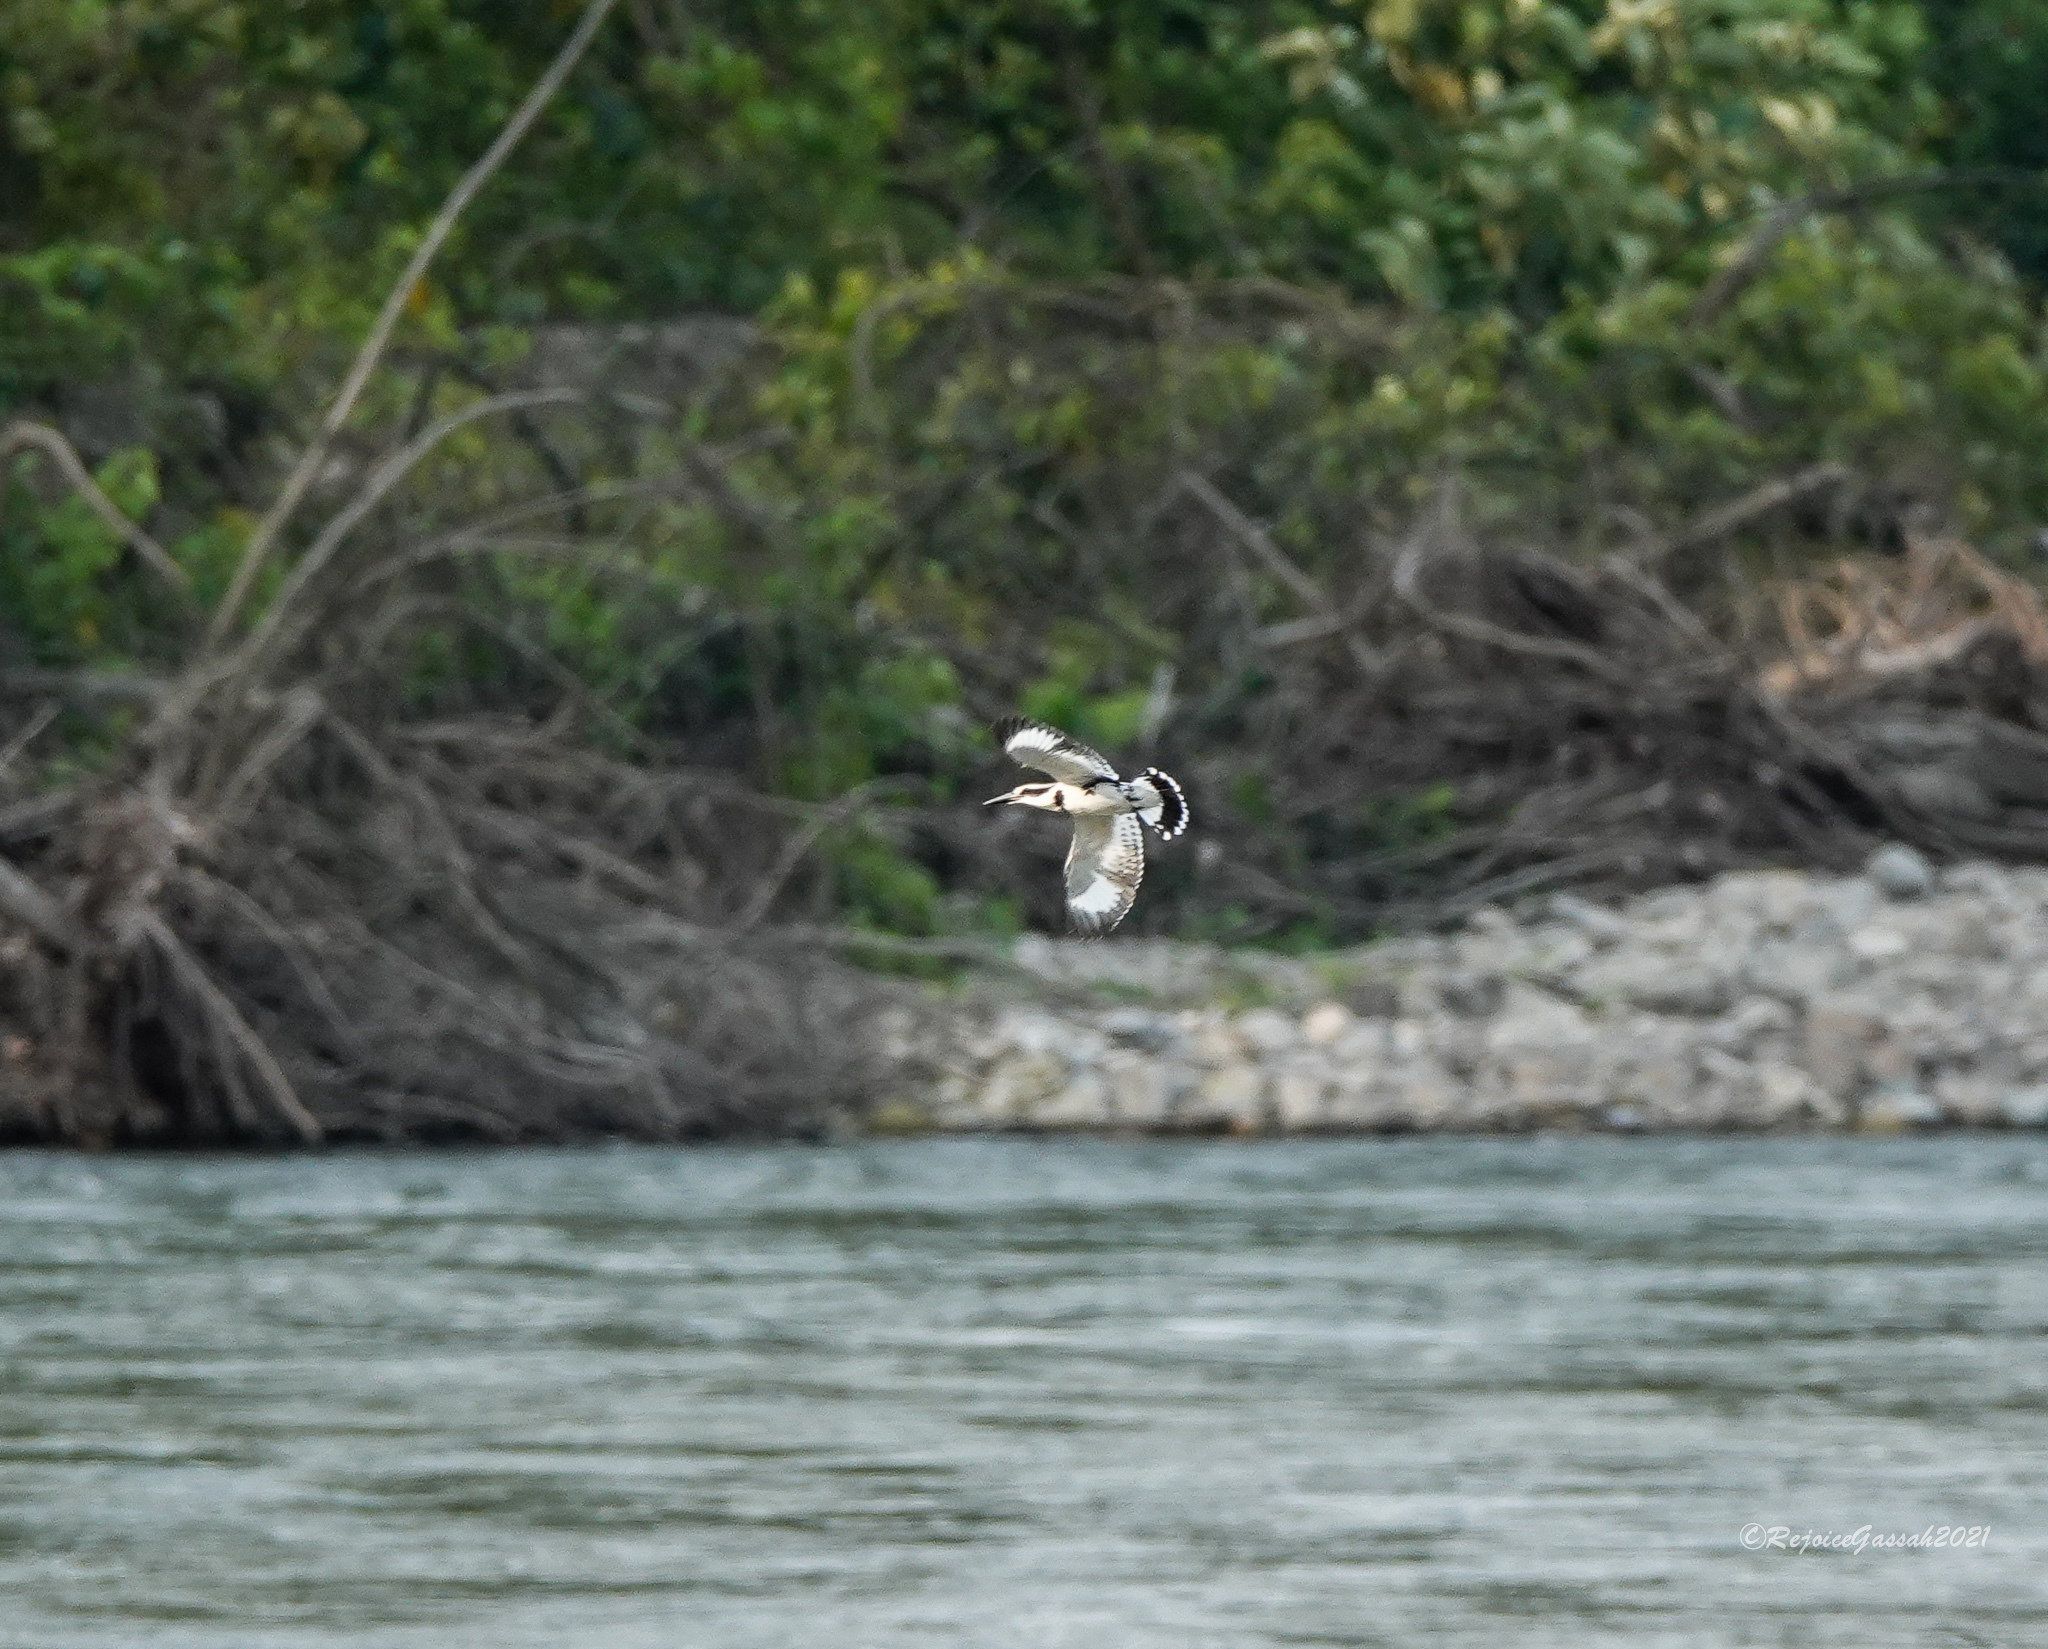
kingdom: Animalia
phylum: Chordata
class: Aves
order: Coraciiformes
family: Alcedinidae
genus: Ceryle
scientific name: Ceryle rudis
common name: Pied kingfisher
